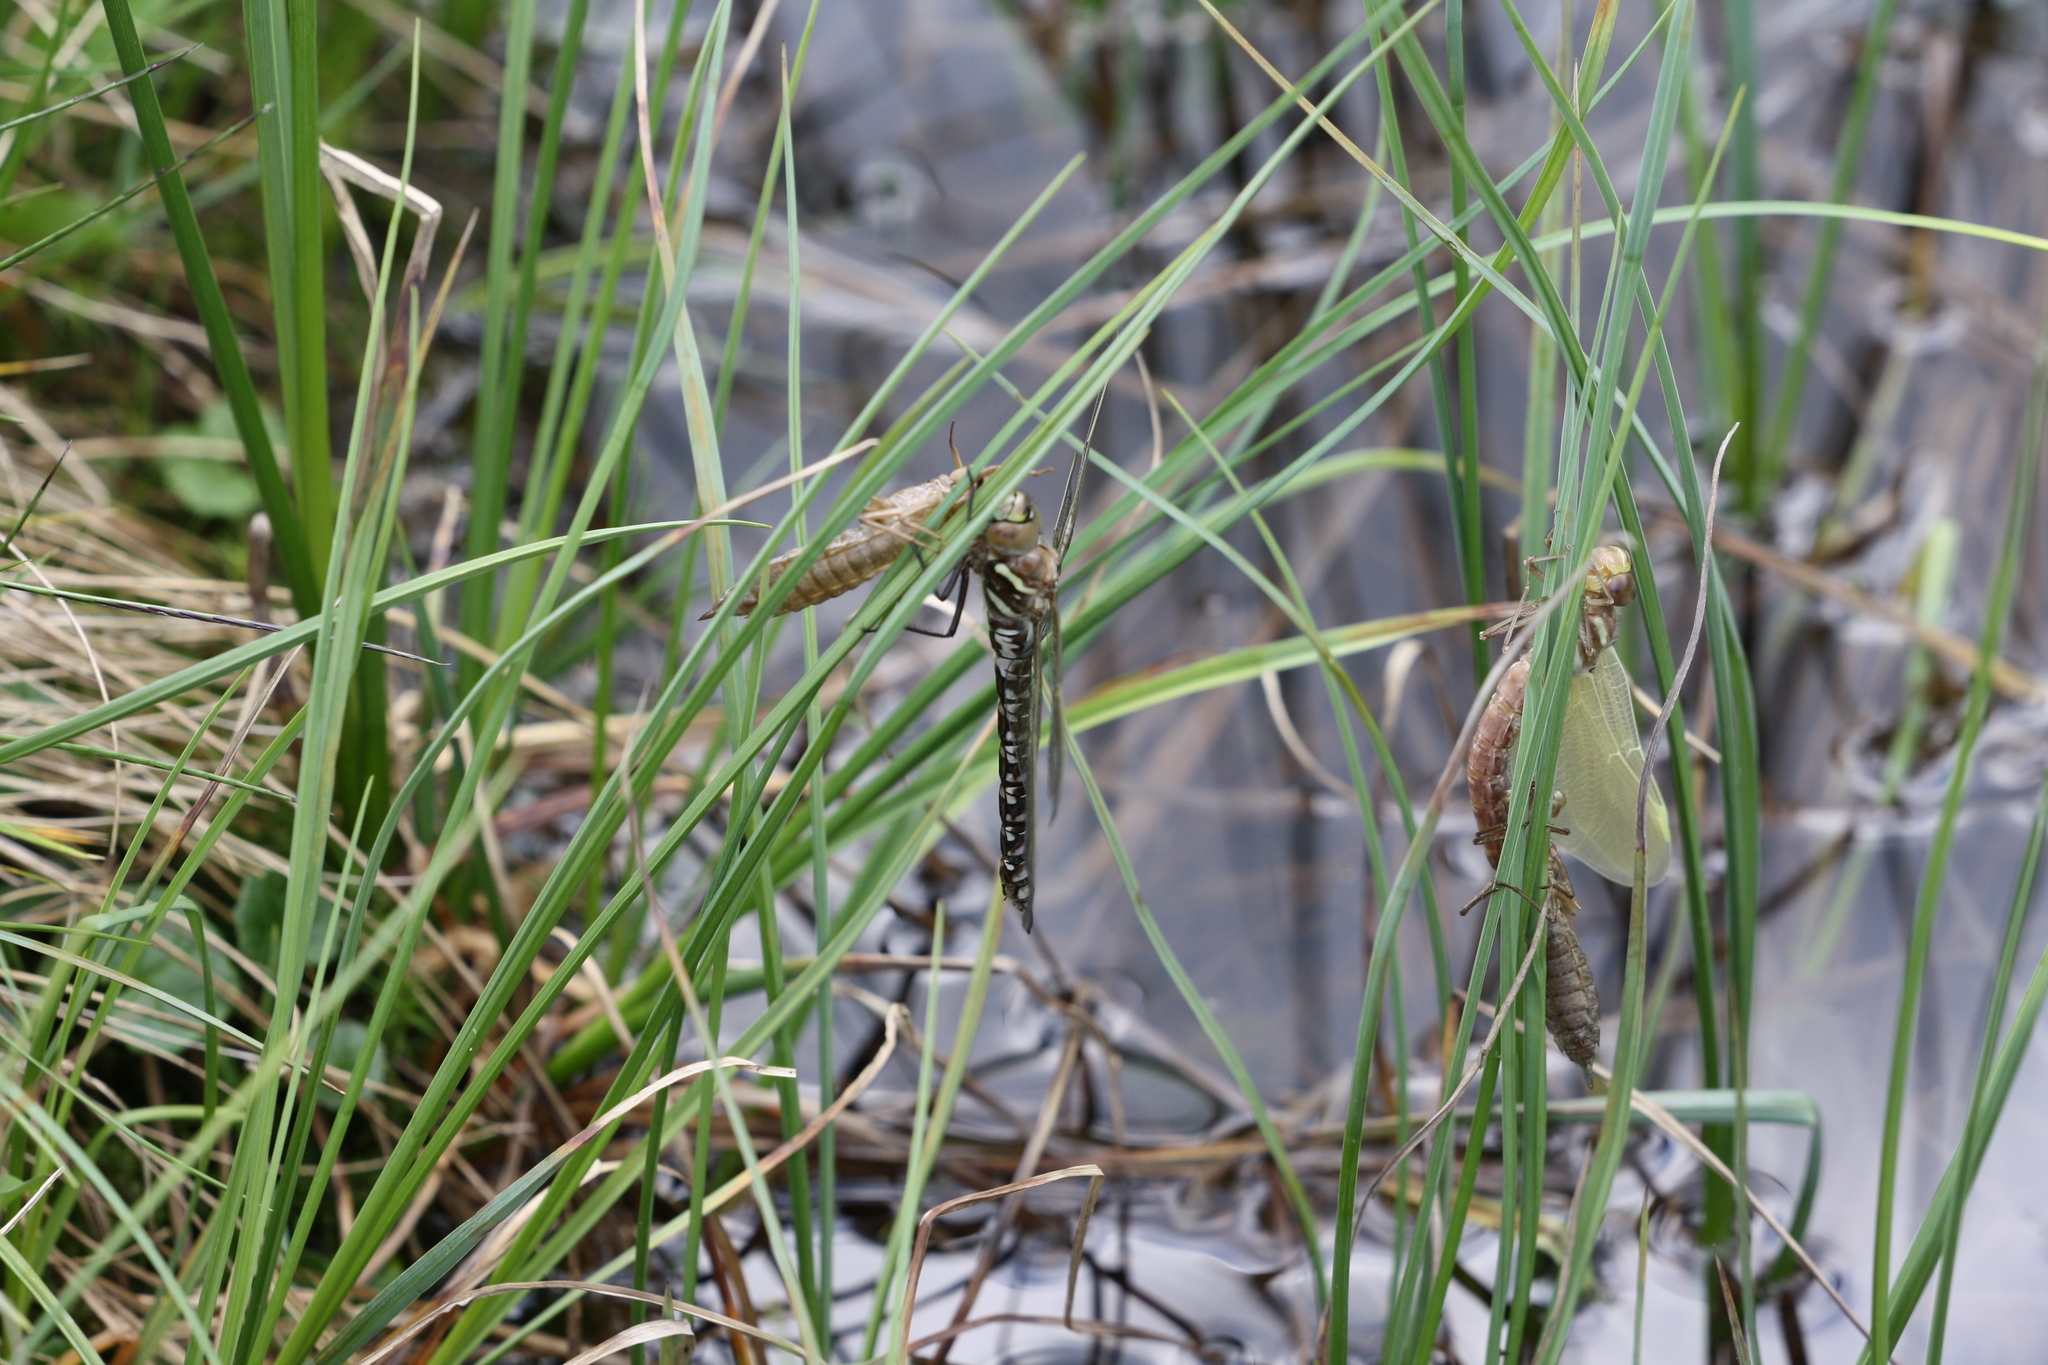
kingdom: Animalia
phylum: Arthropoda
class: Insecta
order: Odonata
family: Aeshnidae
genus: Aeshna
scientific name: Aeshna juncea
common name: Moorland hawker
